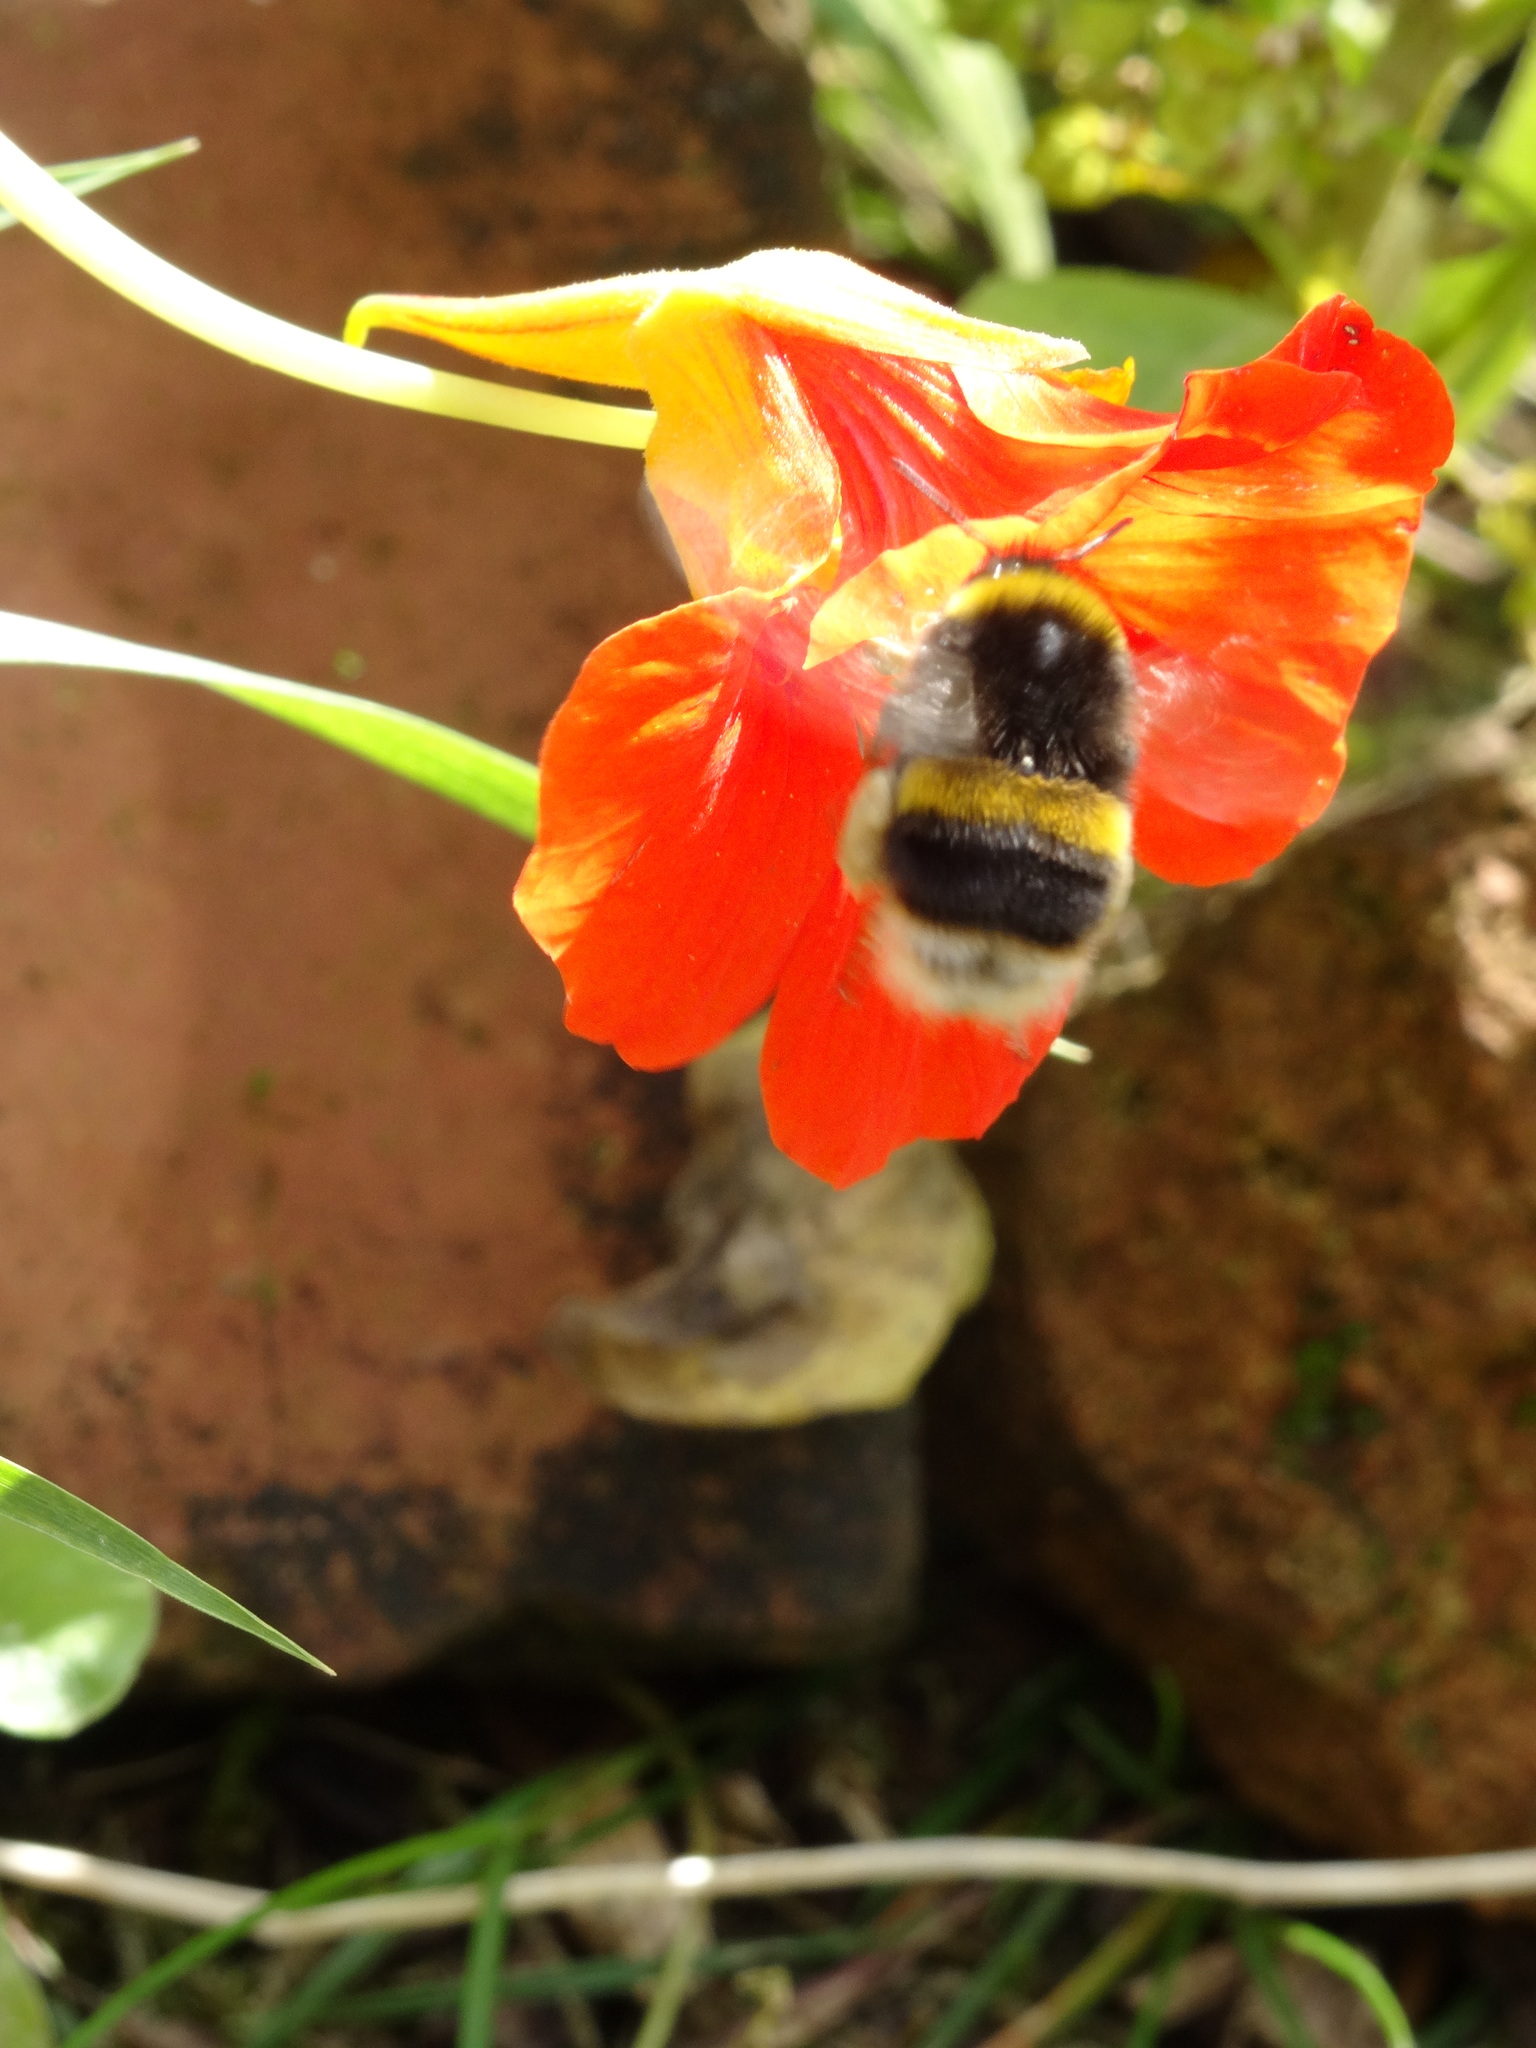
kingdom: Animalia
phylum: Arthropoda
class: Insecta
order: Hymenoptera
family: Apidae
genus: Bombus
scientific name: Bombus terrestris
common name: Buff-tailed bumblebee
